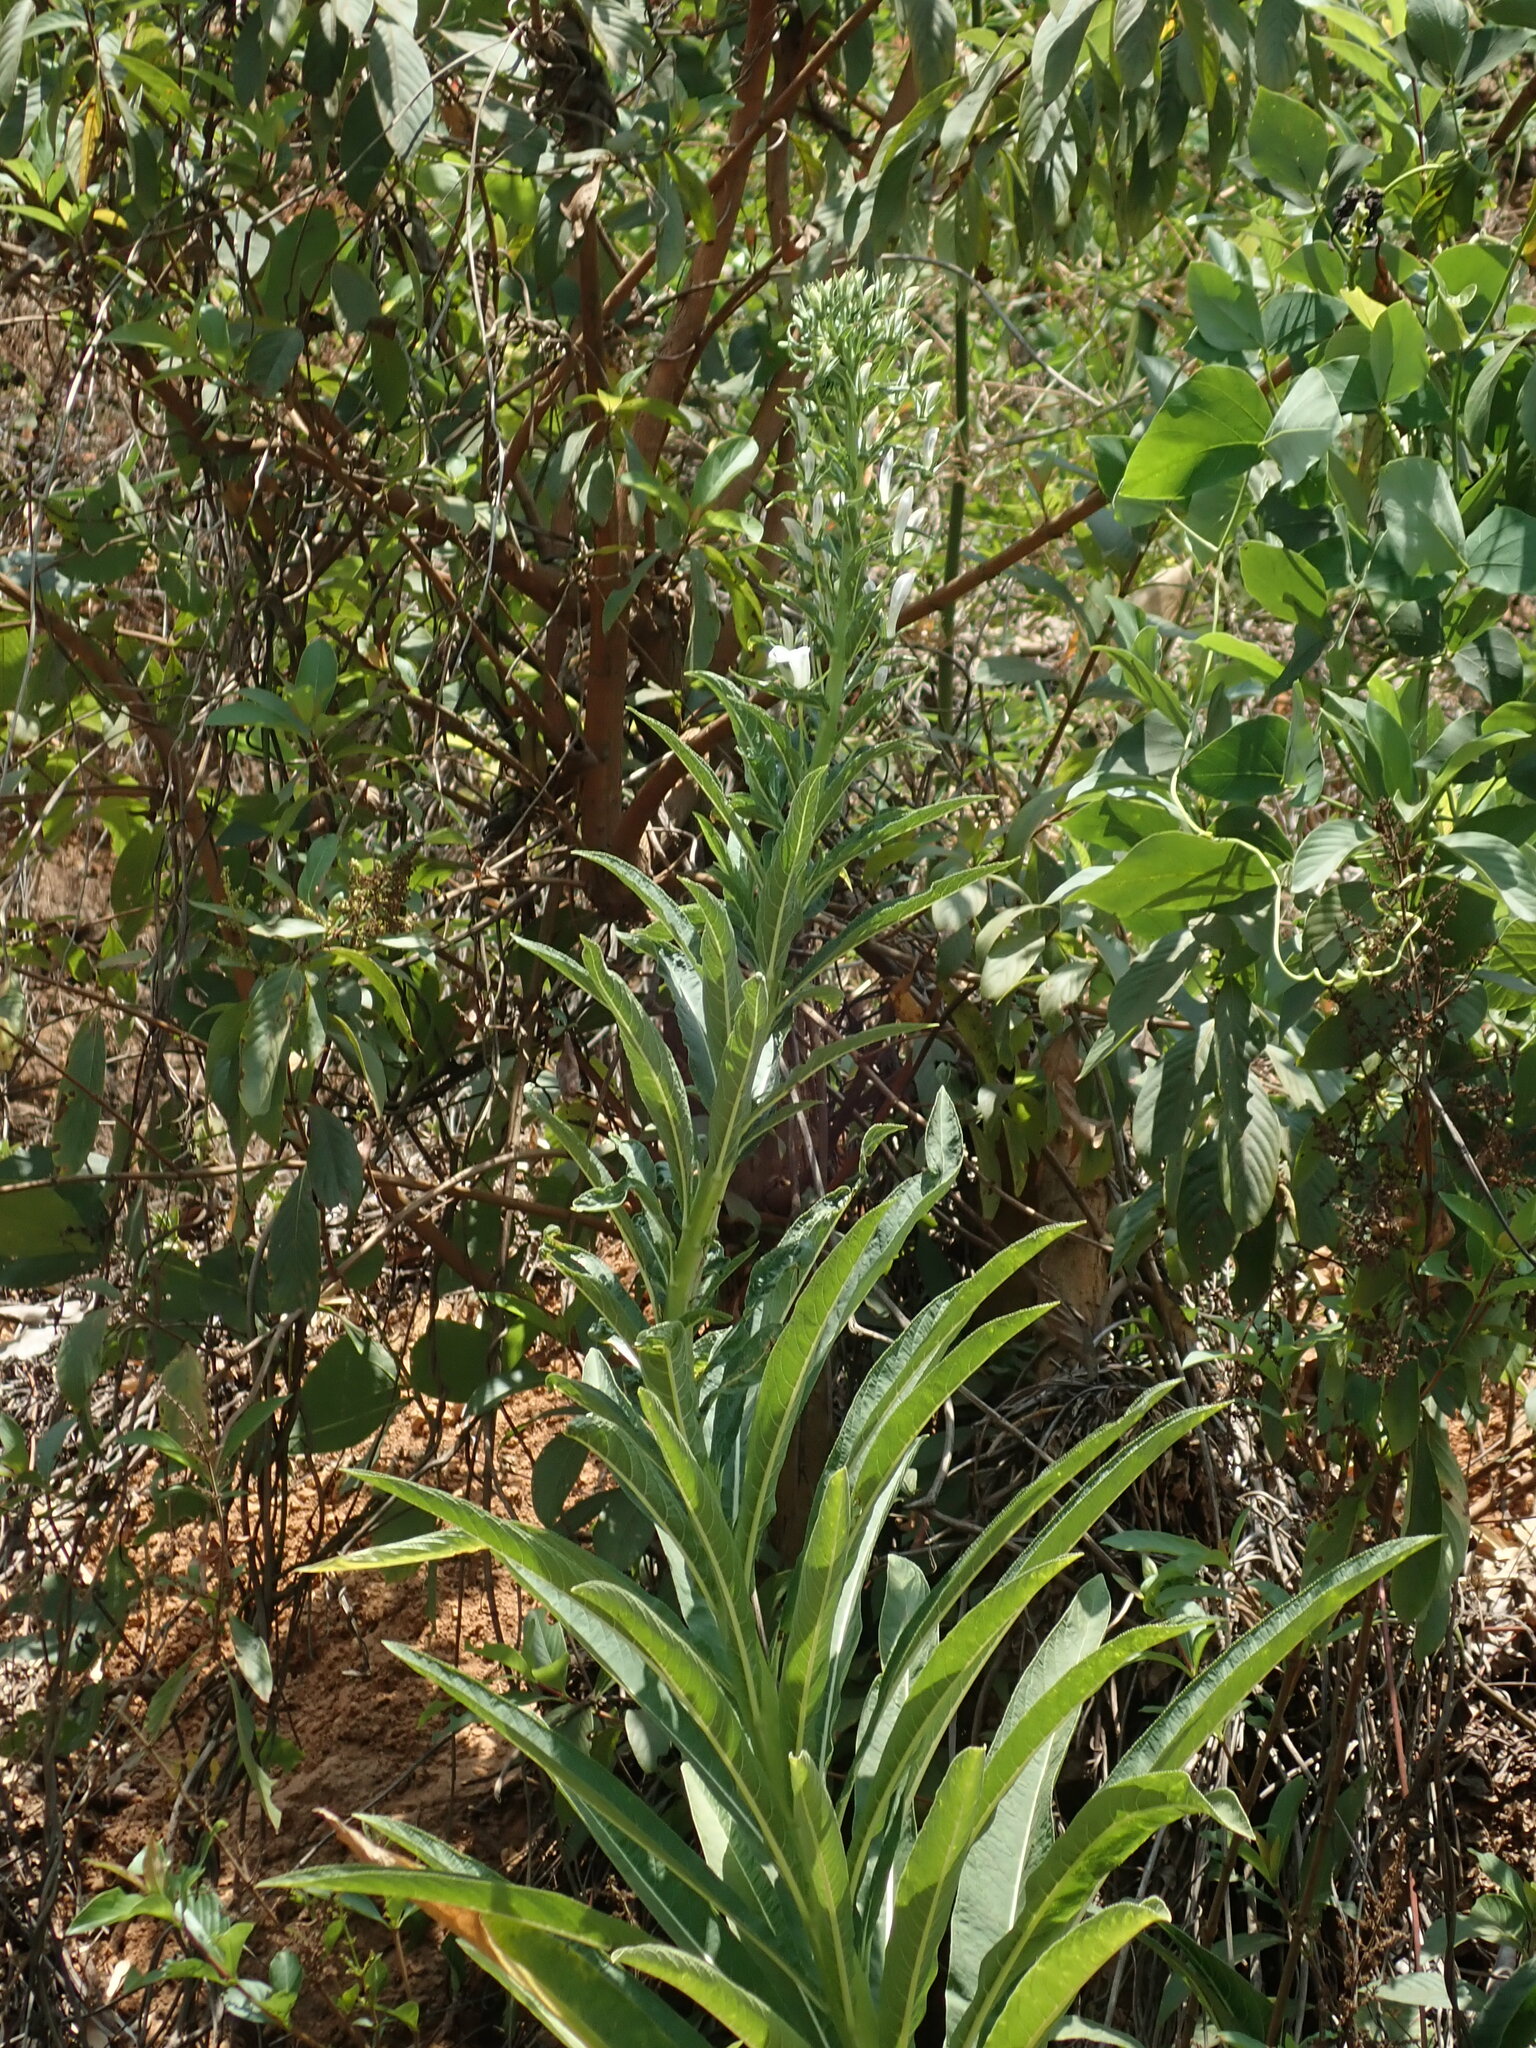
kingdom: Plantae
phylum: Tracheophyta
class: Magnoliopsida
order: Asterales
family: Campanulaceae
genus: Lobelia
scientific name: Lobelia nicotianifolia
